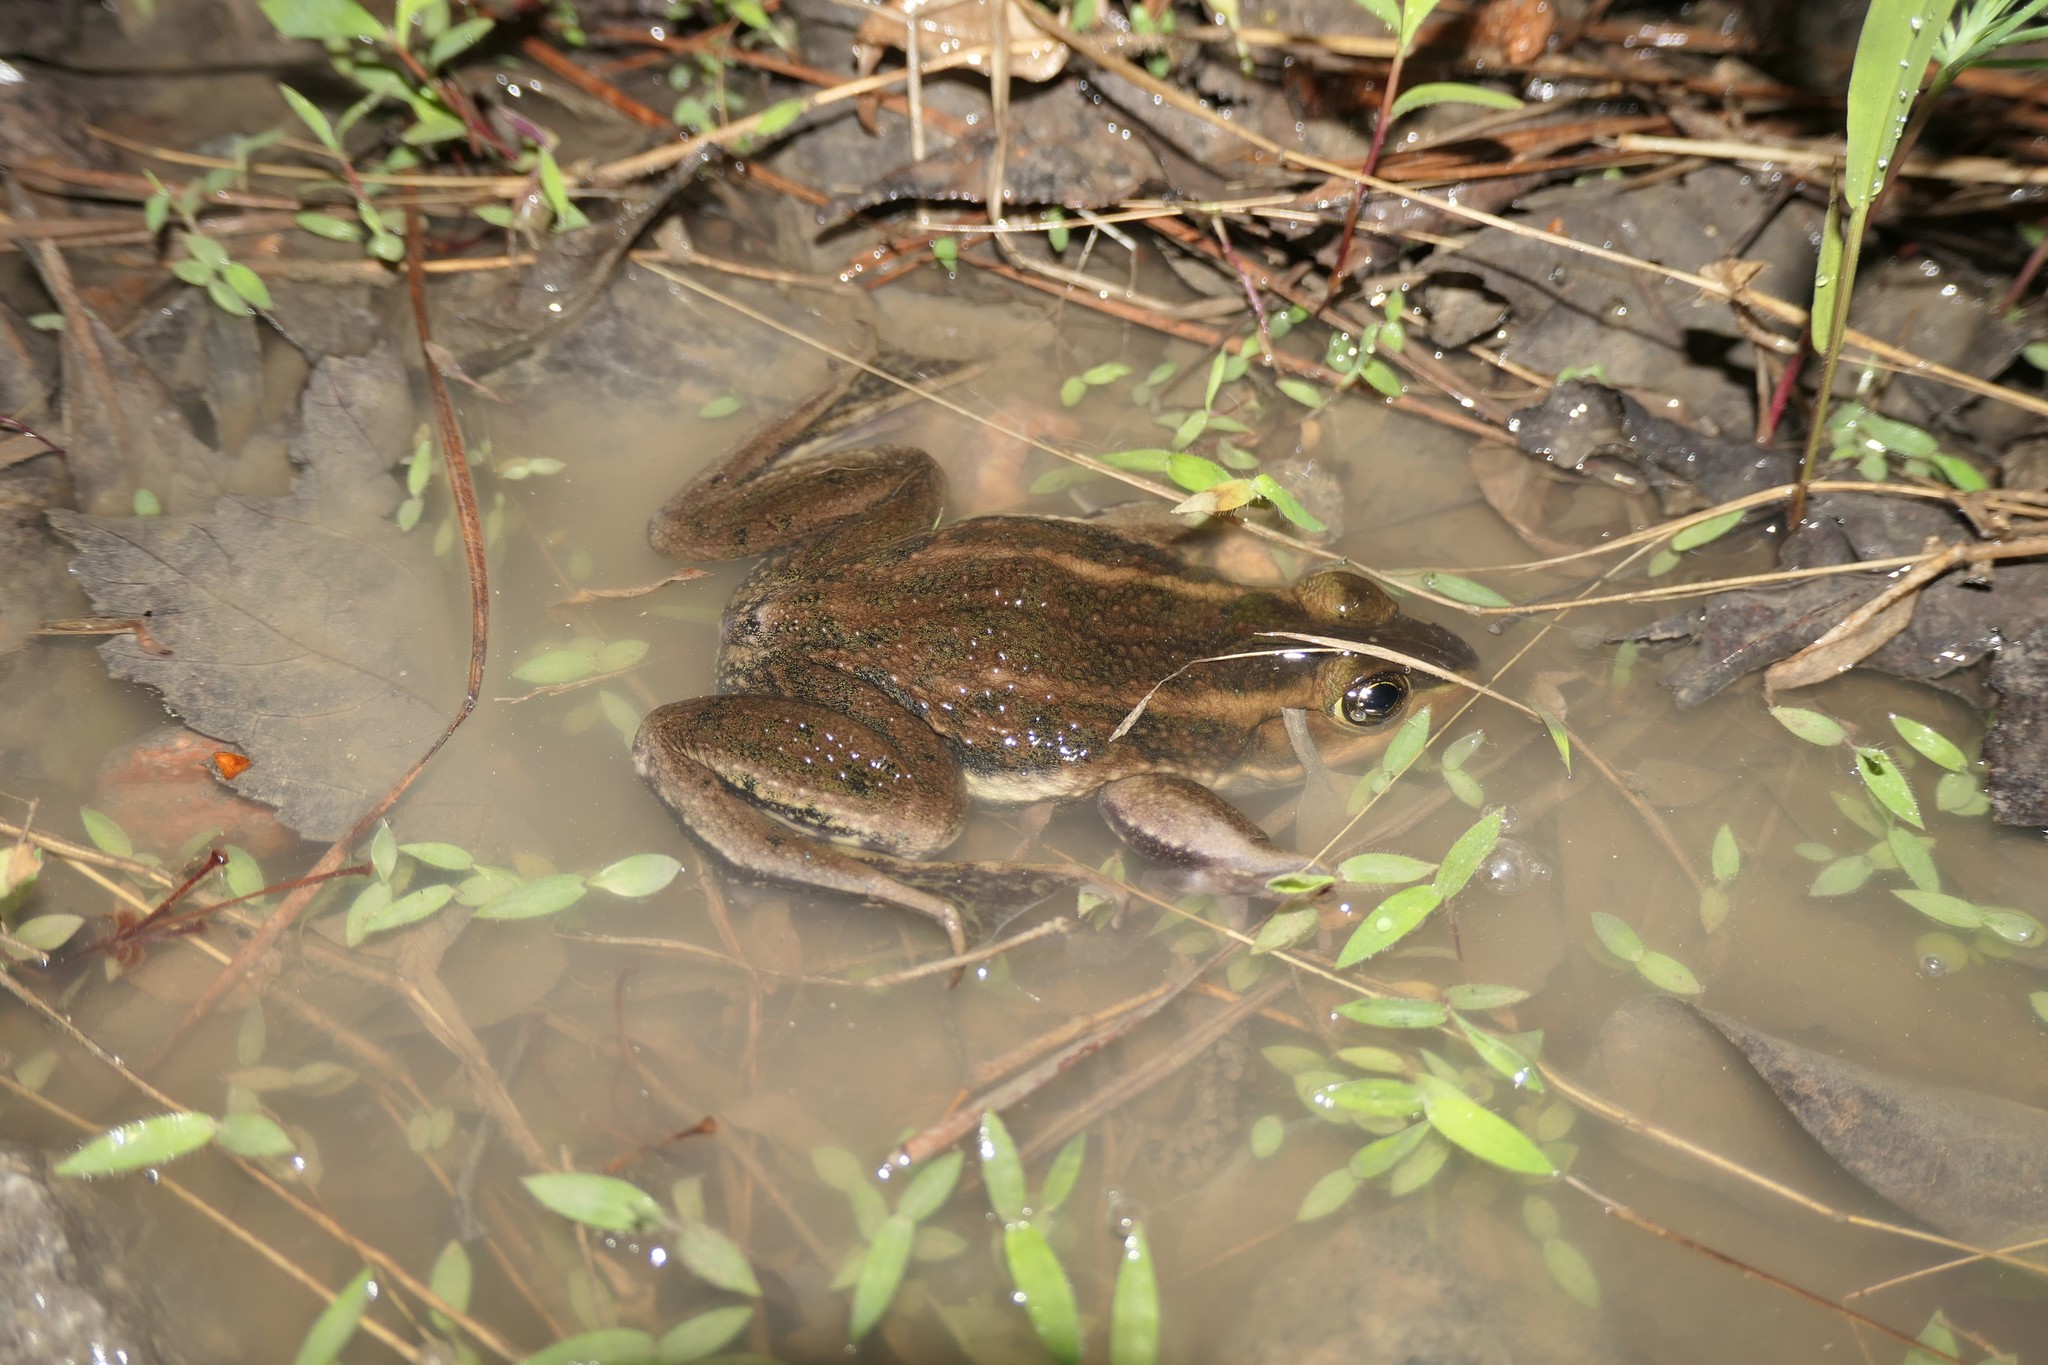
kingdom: Animalia
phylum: Chordata
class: Amphibia
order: Anura
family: Ranidae
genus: Lithobates
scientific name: Lithobates virgatipes
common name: Carpenter frog
